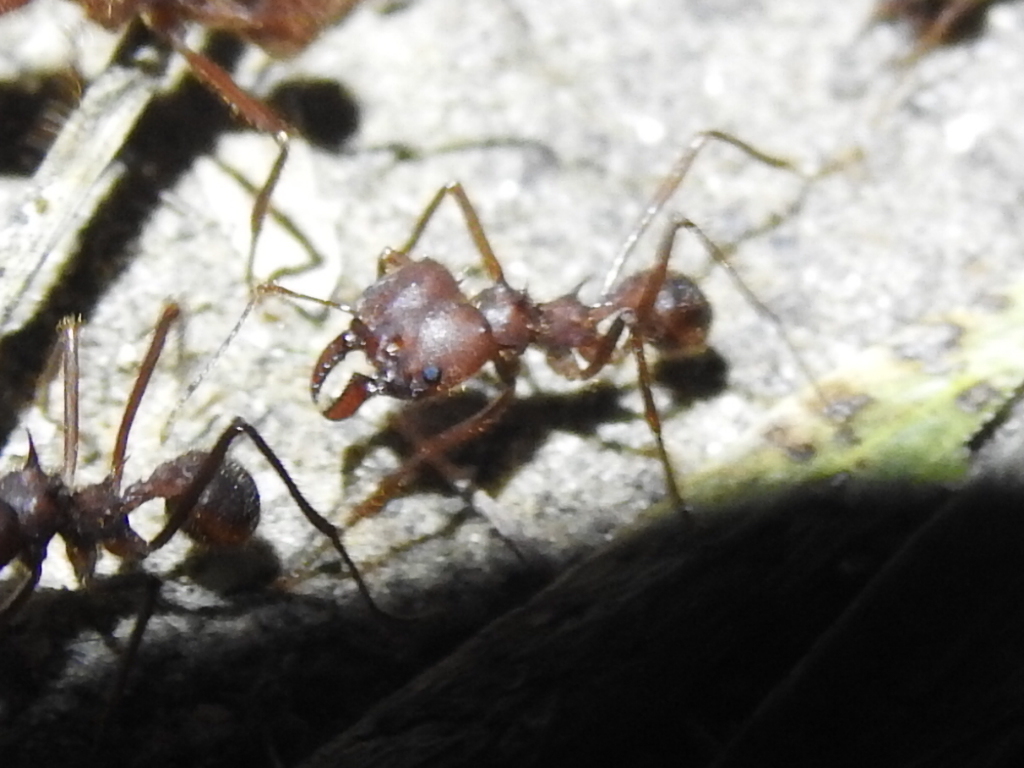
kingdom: Animalia
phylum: Arthropoda
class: Insecta
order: Hymenoptera
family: Formicidae
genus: Atta
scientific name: Atta texana
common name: Texas leafcutting ant
